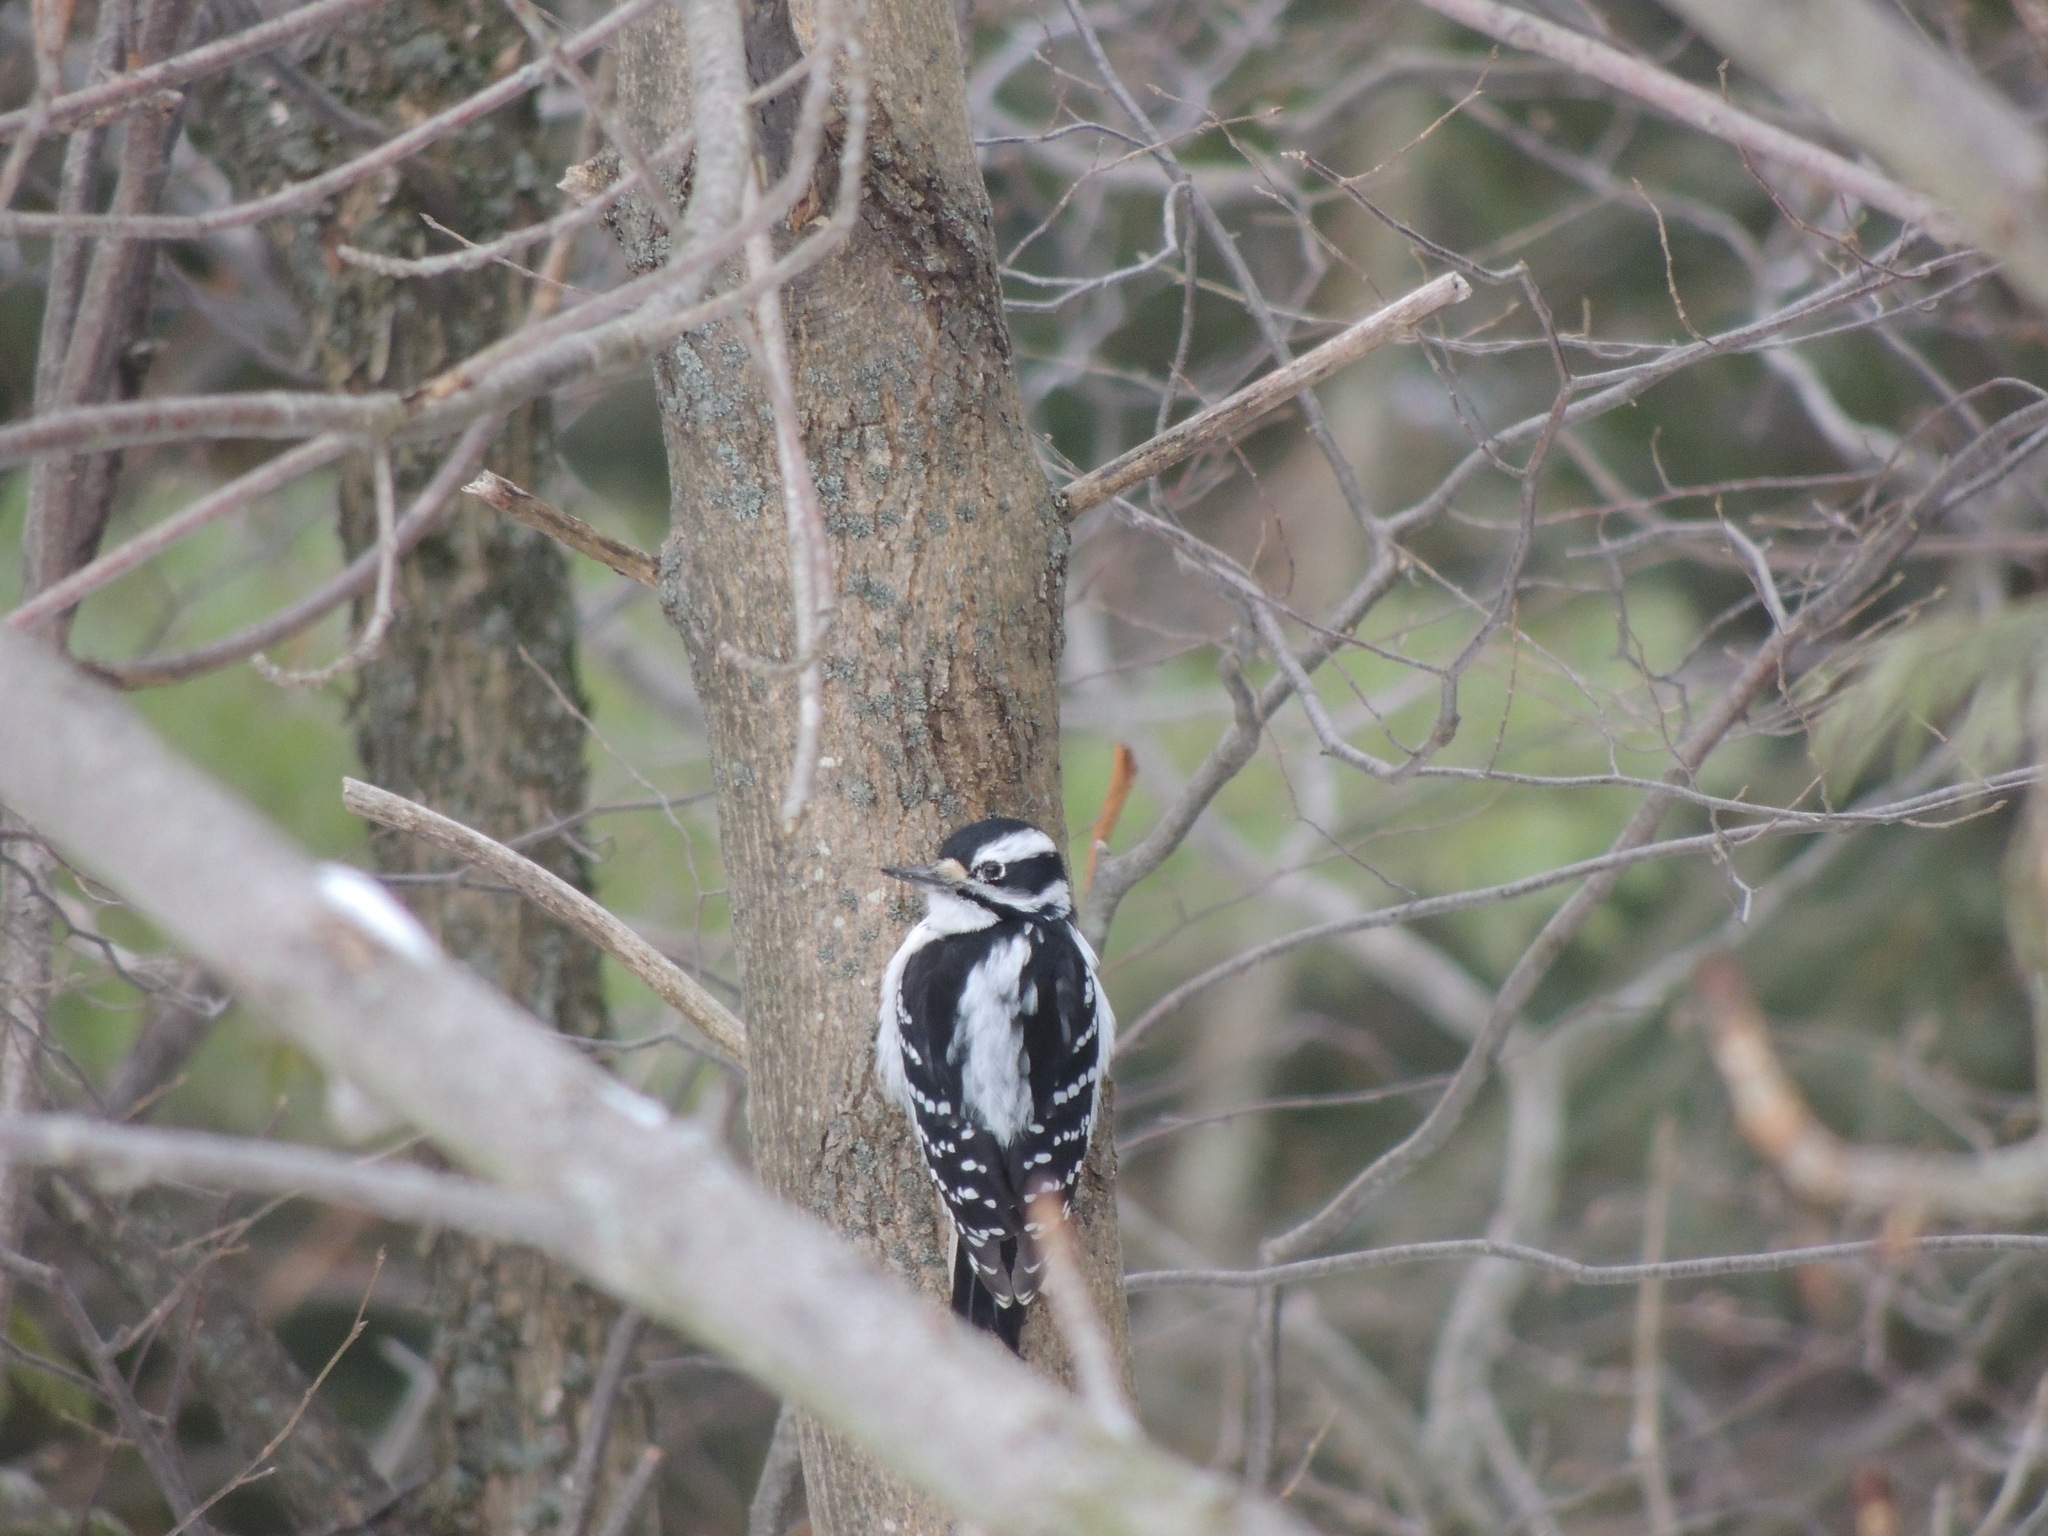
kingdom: Animalia
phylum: Chordata
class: Aves
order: Piciformes
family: Picidae
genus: Leuconotopicus
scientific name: Leuconotopicus villosus
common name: Hairy woodpecker
